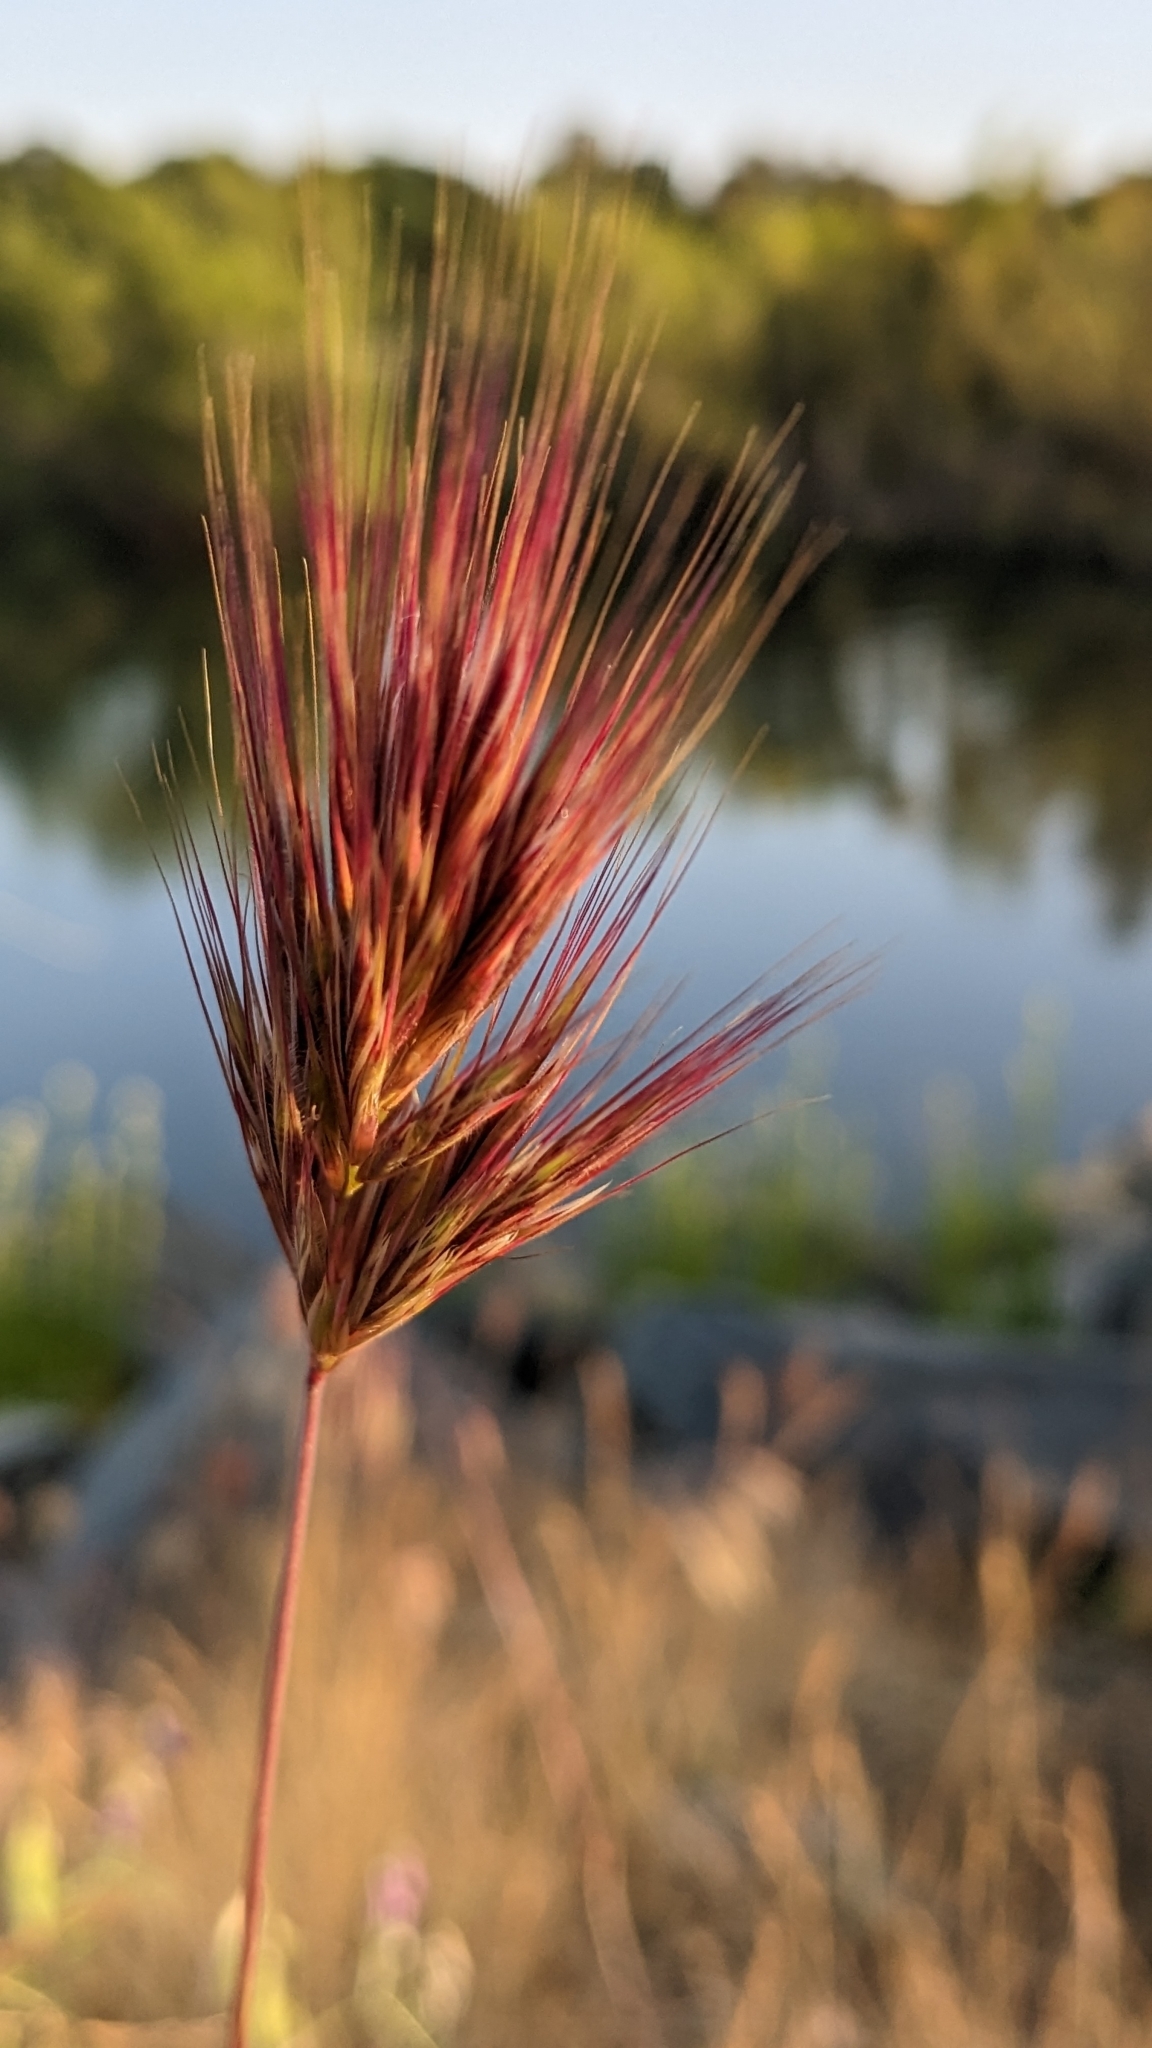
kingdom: Plantae
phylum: Tracheophyta
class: Liliopsida
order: Poales
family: Poaceae
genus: Bromus
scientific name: Bromus rubens
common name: Red brome
